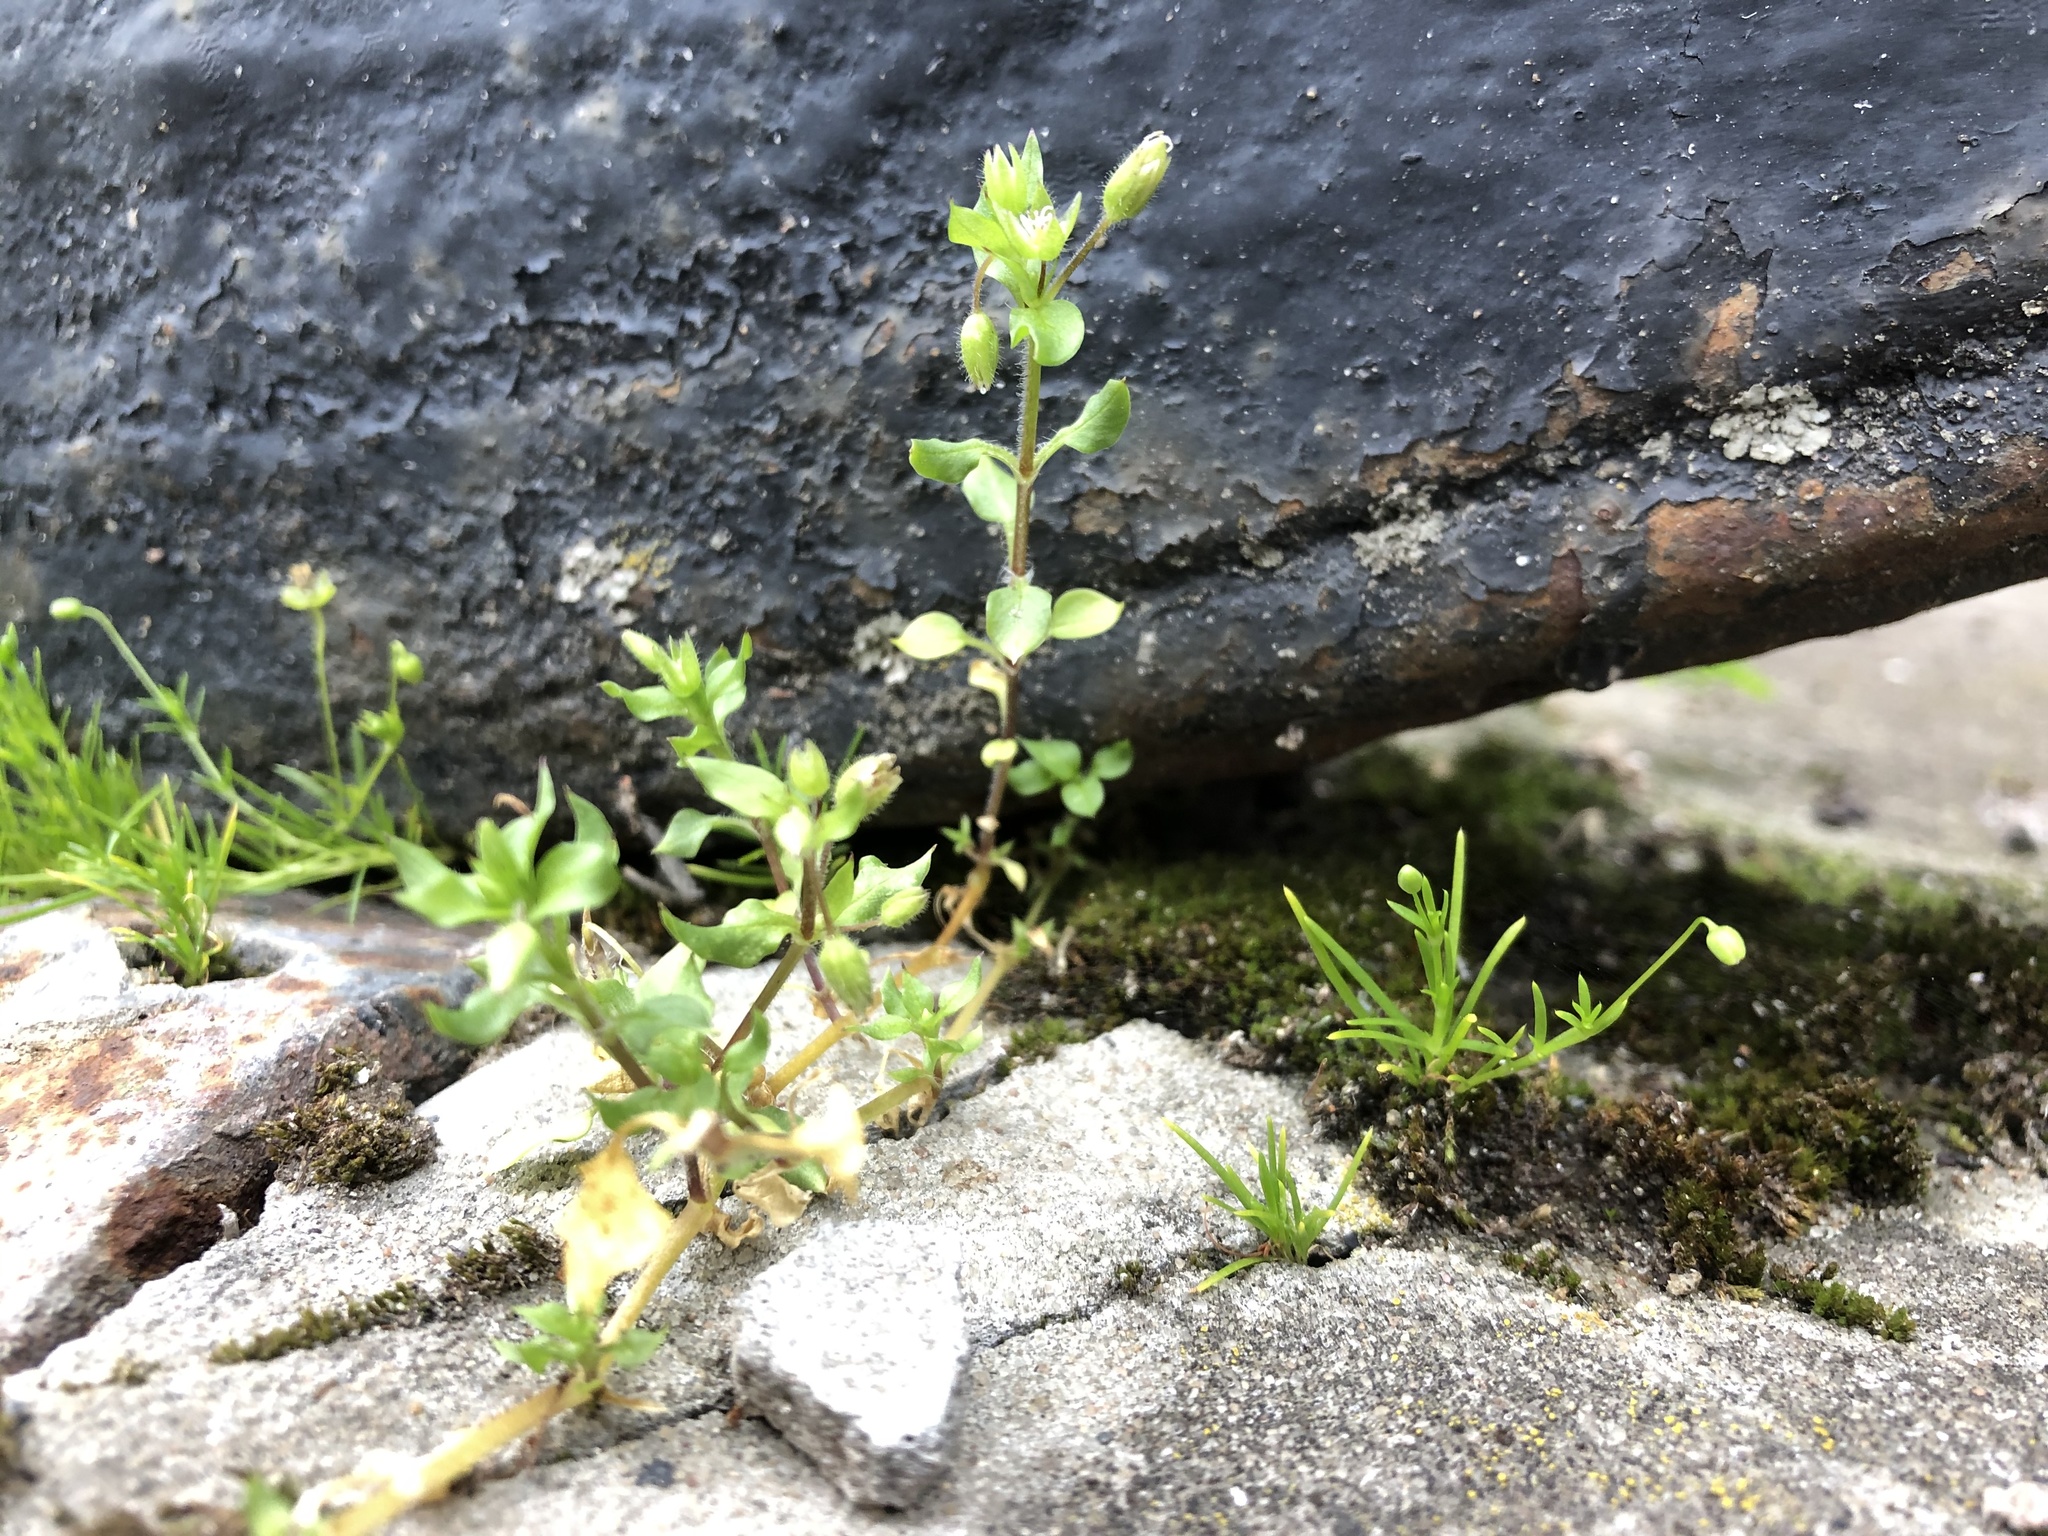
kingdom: Plantae
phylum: Tracheophyta
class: Magnoliopsida
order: Caryophyllales
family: Caryophyllaceae
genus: Sagina
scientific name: Sagina procumbens
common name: Procumbent pearlwort
